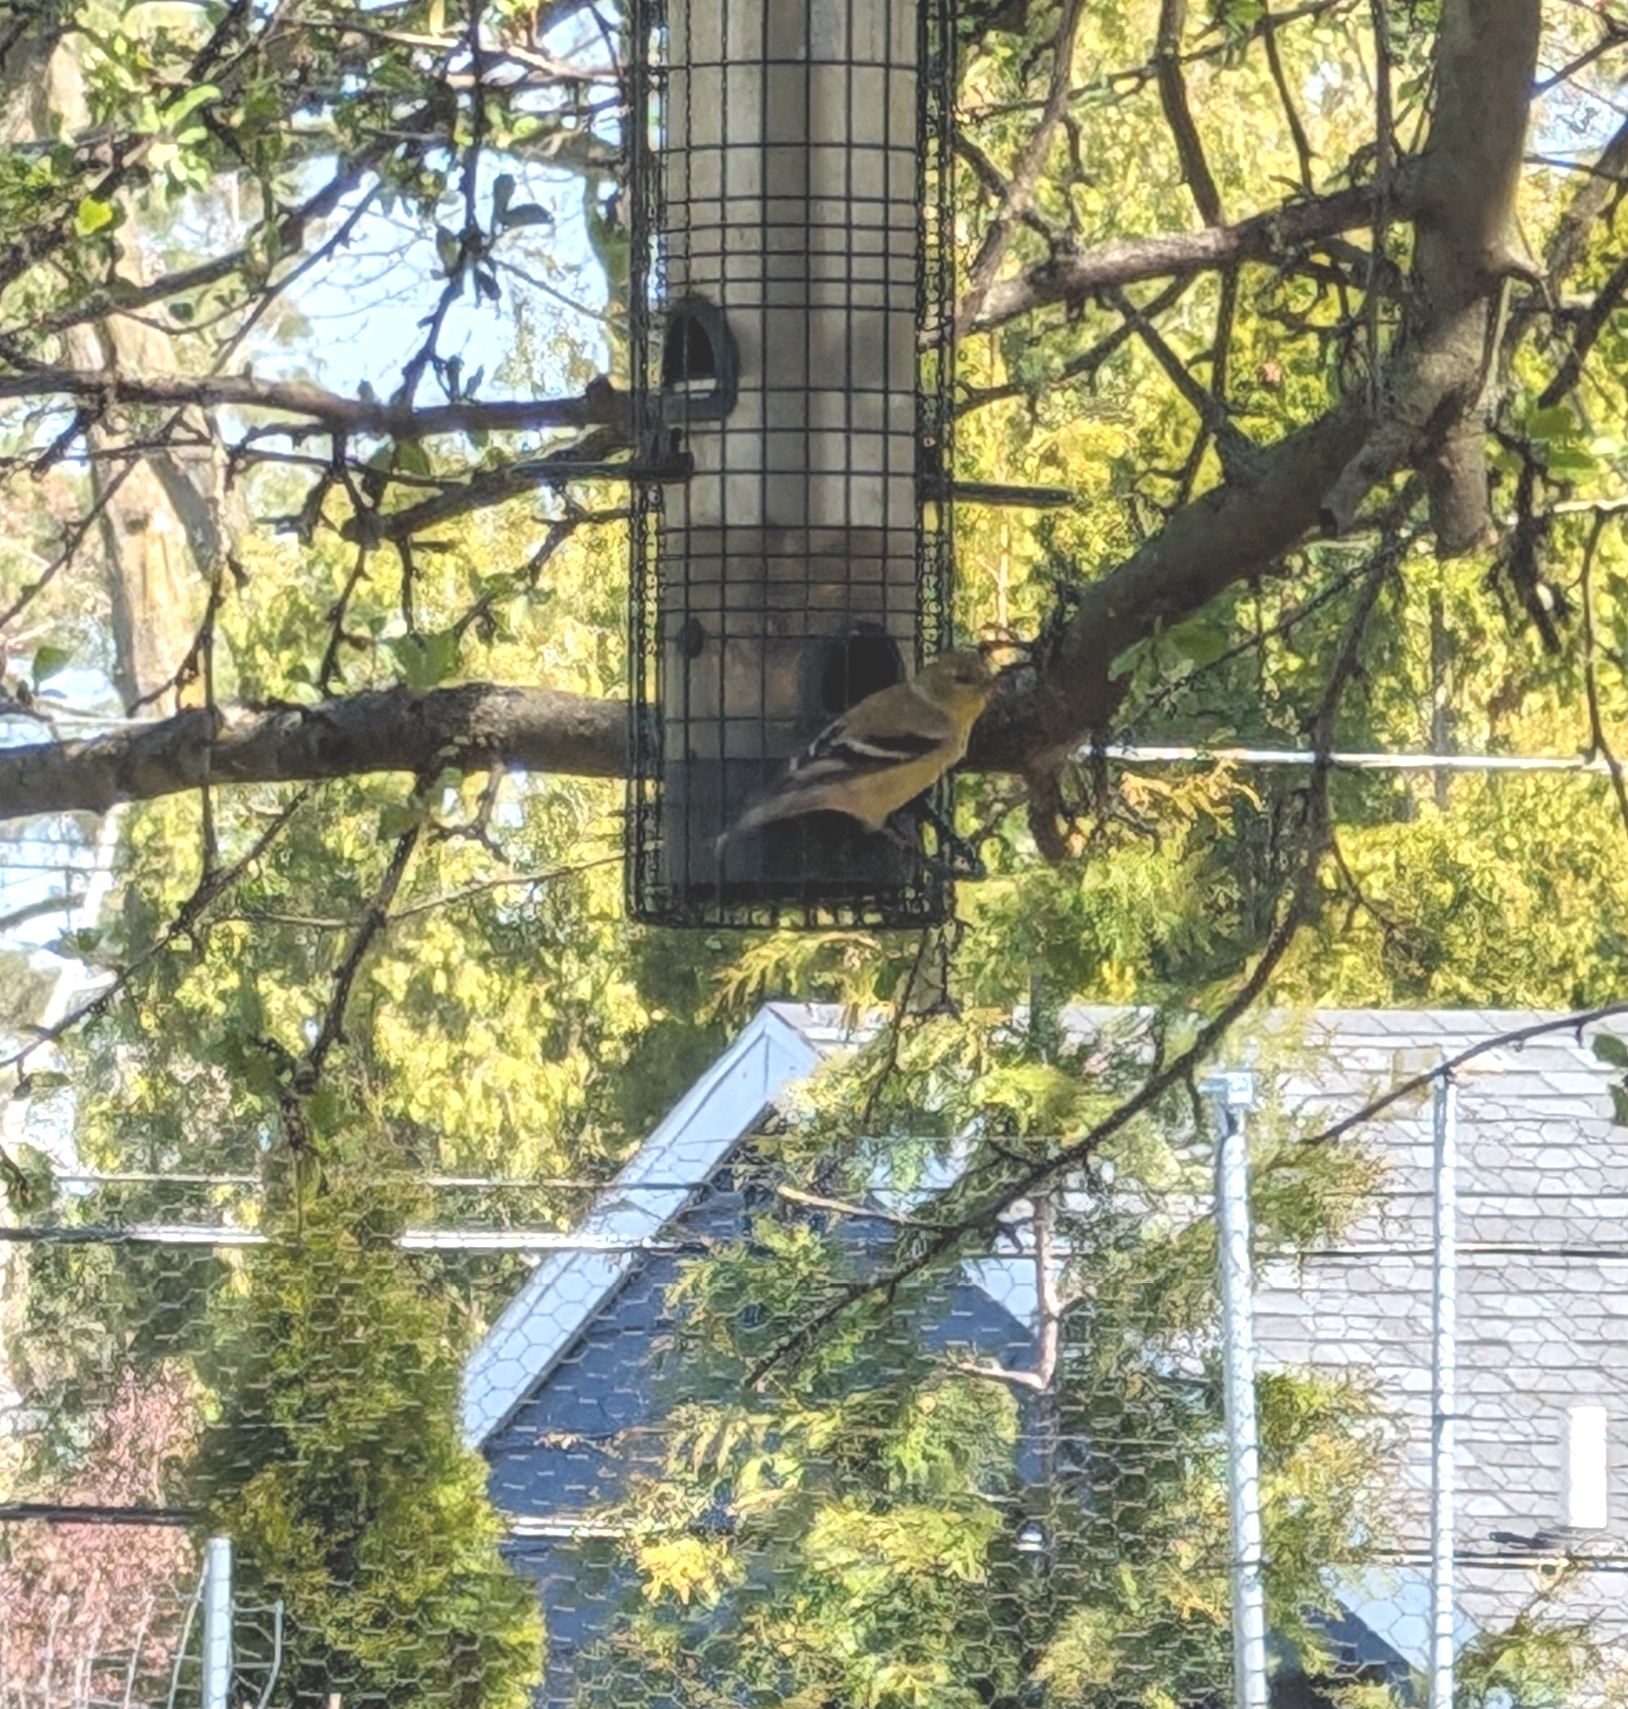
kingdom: Animalia
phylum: Chordata
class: Aves
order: Passeriformes
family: Fringillidae
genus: Spinus
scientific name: Spinus tristis
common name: American goldfinch
